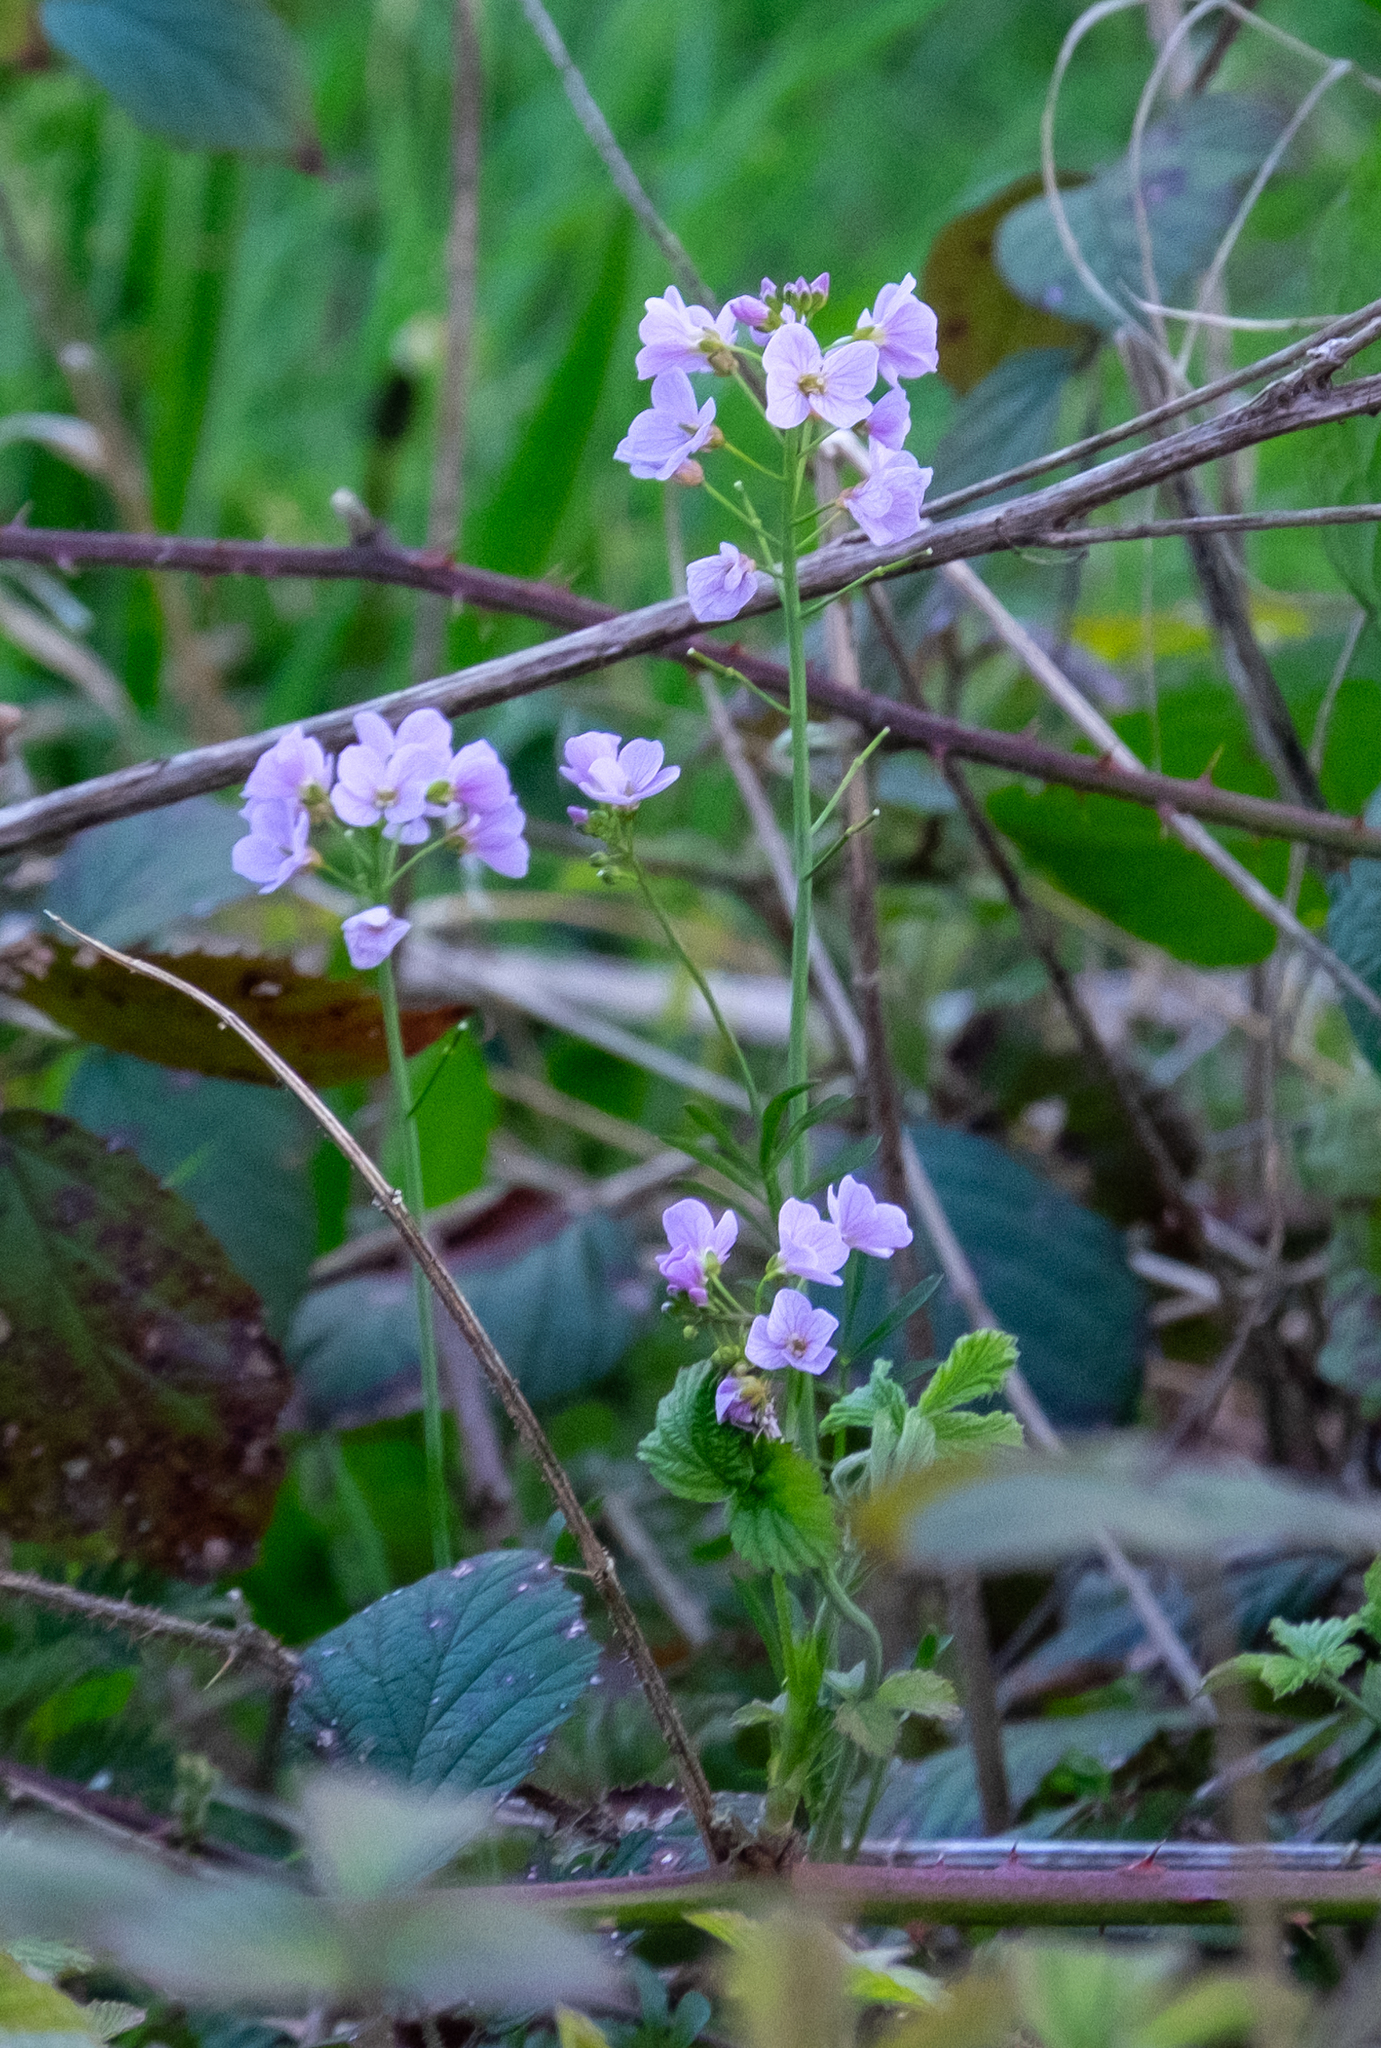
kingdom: Plantae
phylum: Tracheophyta
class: Magnoliopsida
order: Brassicales
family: Brassicaceae
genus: Cardamine
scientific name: Cardamine pratensis
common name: Cuckoo flower
